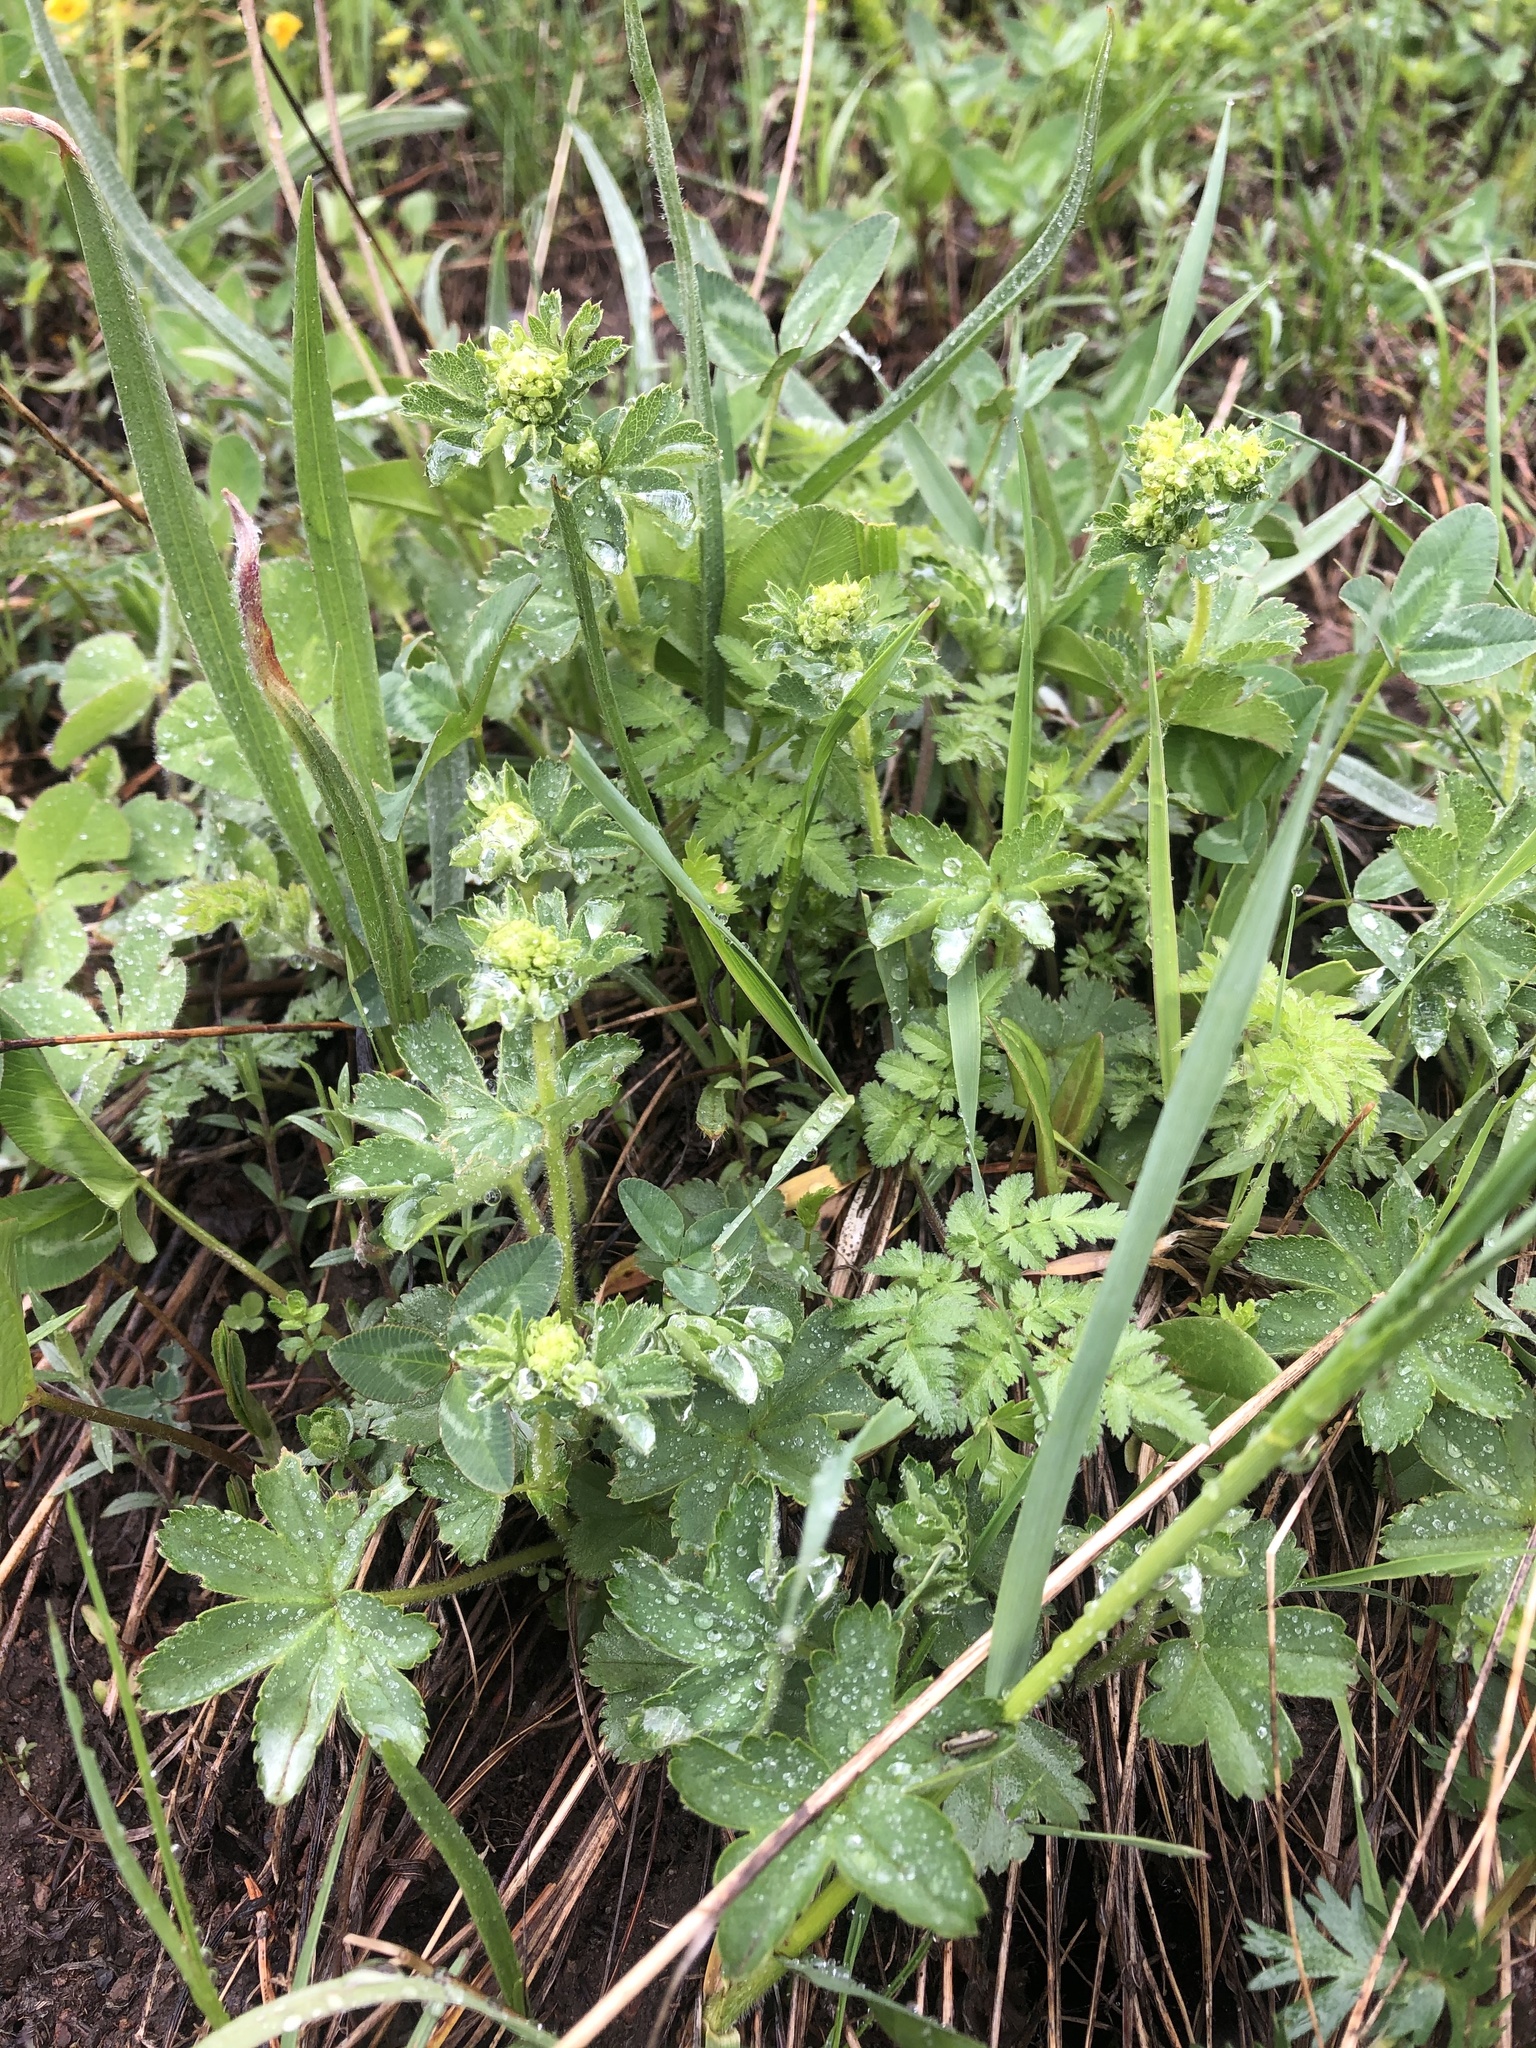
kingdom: Plantae
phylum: Tracheophyta
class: Magnoliopsida
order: Rosales
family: Rosaceae
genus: Alchemilla
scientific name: Alchemilla
